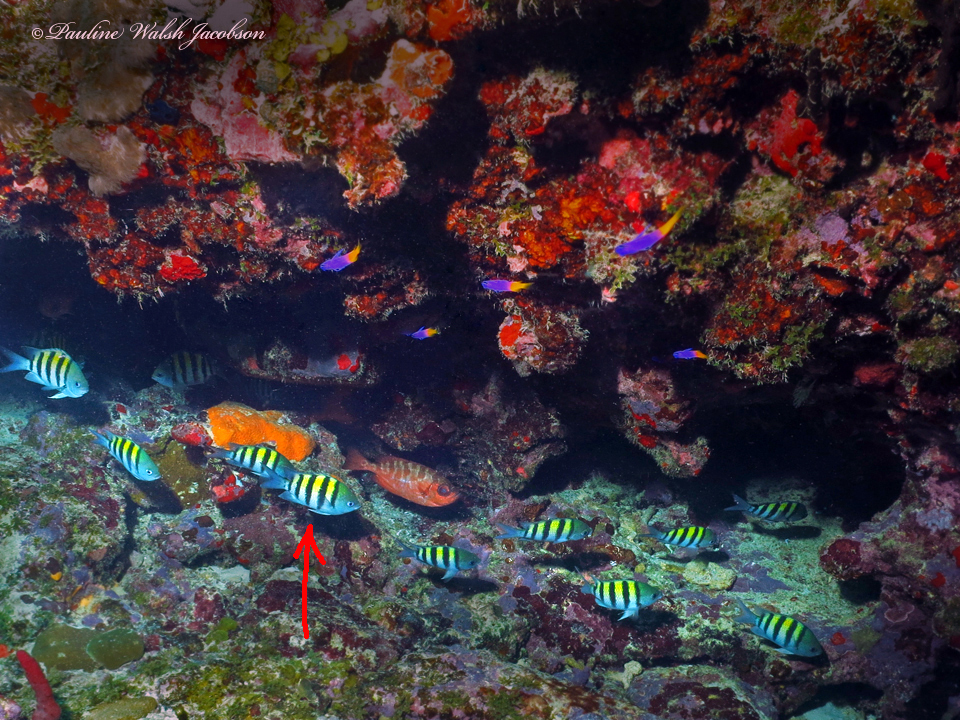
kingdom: Animalia
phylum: Chordata
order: Perciformes
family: Pomacentridae
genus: Abudefduf
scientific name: Abudefduf saxatilis
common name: Sergeant major
